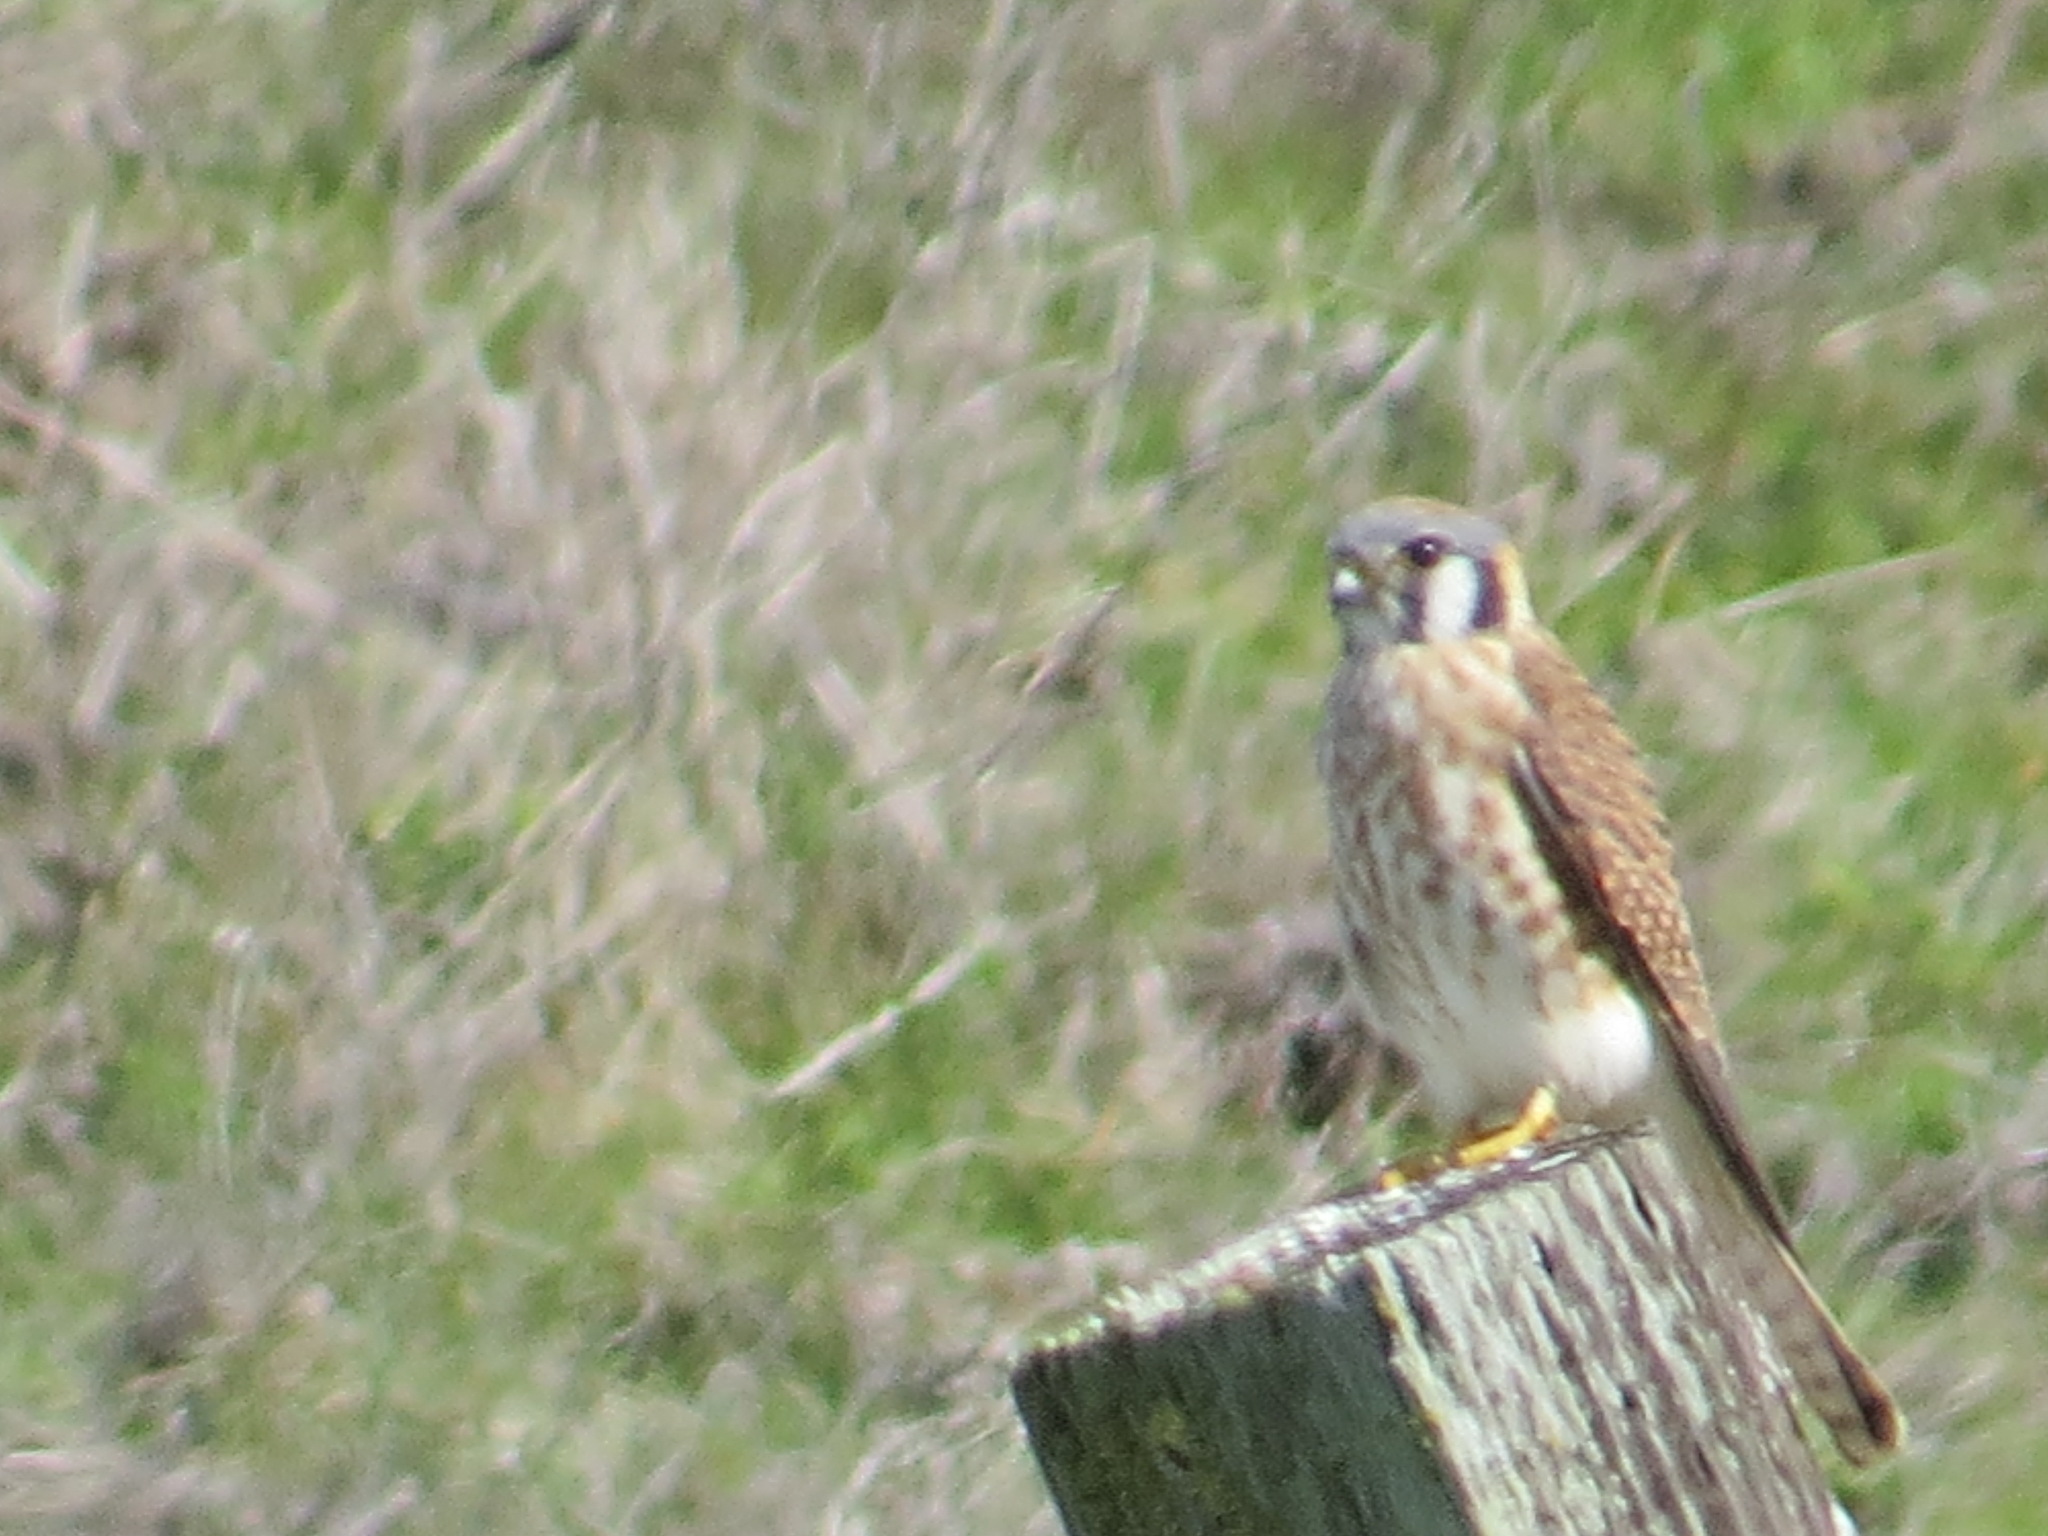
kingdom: Animalia
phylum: Chordata
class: Aves
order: Falconiformes
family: Falconidae
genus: Falco
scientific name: Falco sparverius
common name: American kestrel
